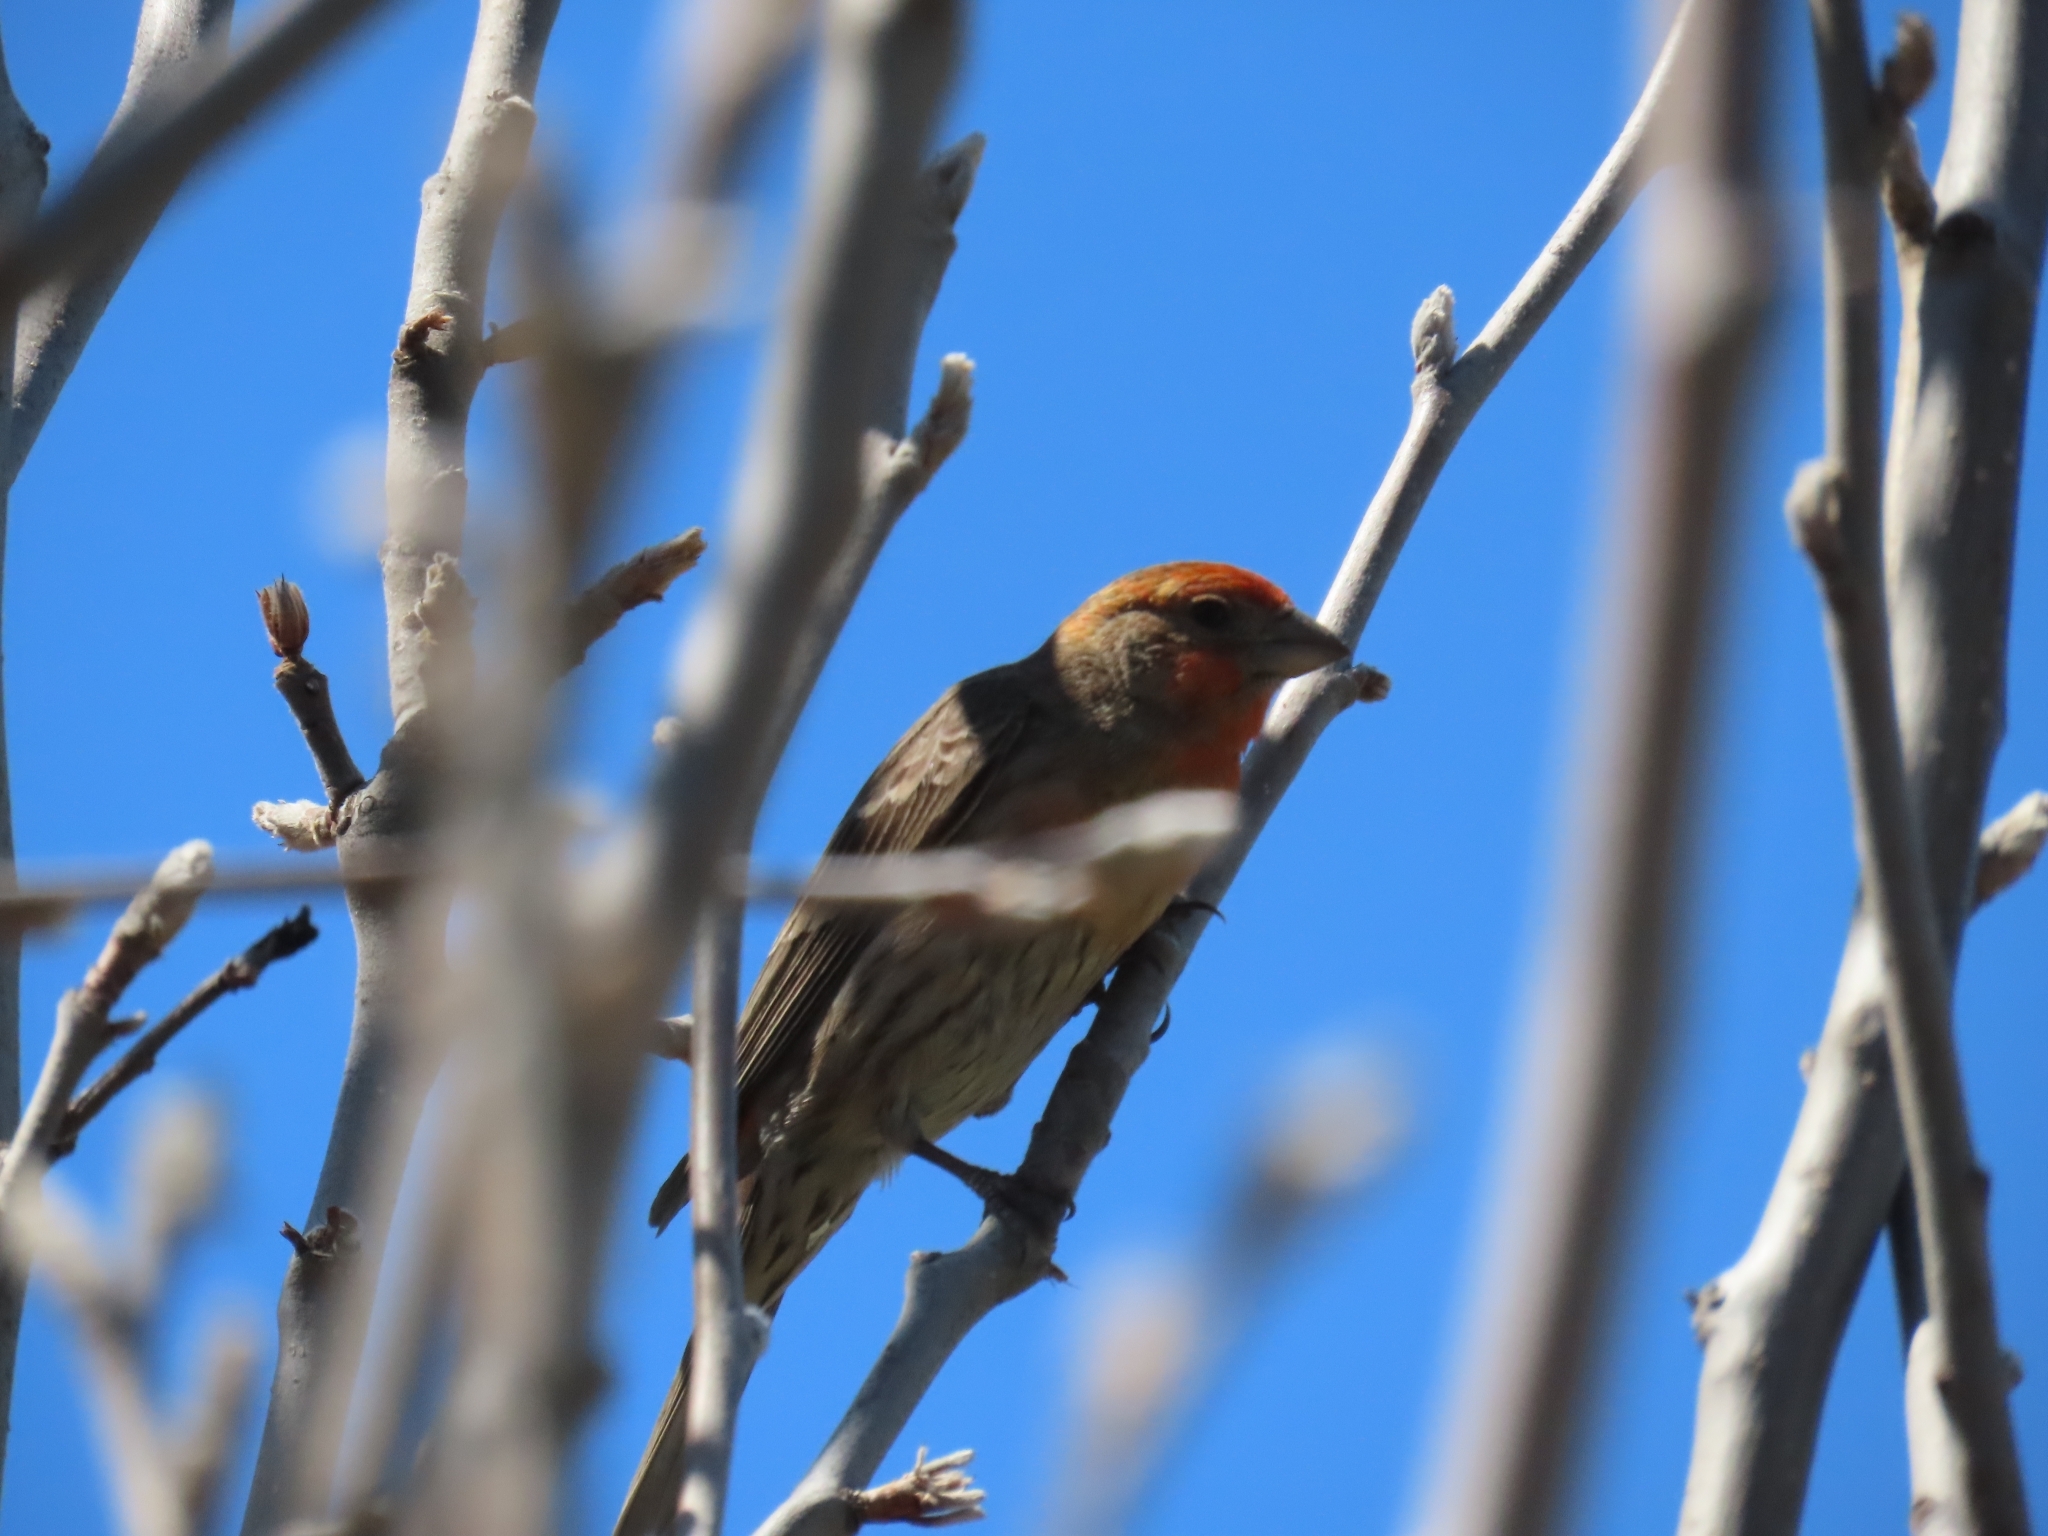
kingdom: Animalia
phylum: Chordata
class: Aves
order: Passeriformes
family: Fringillidae
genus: Haemorhous
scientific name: Haemorhous mexicanus
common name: House finch
